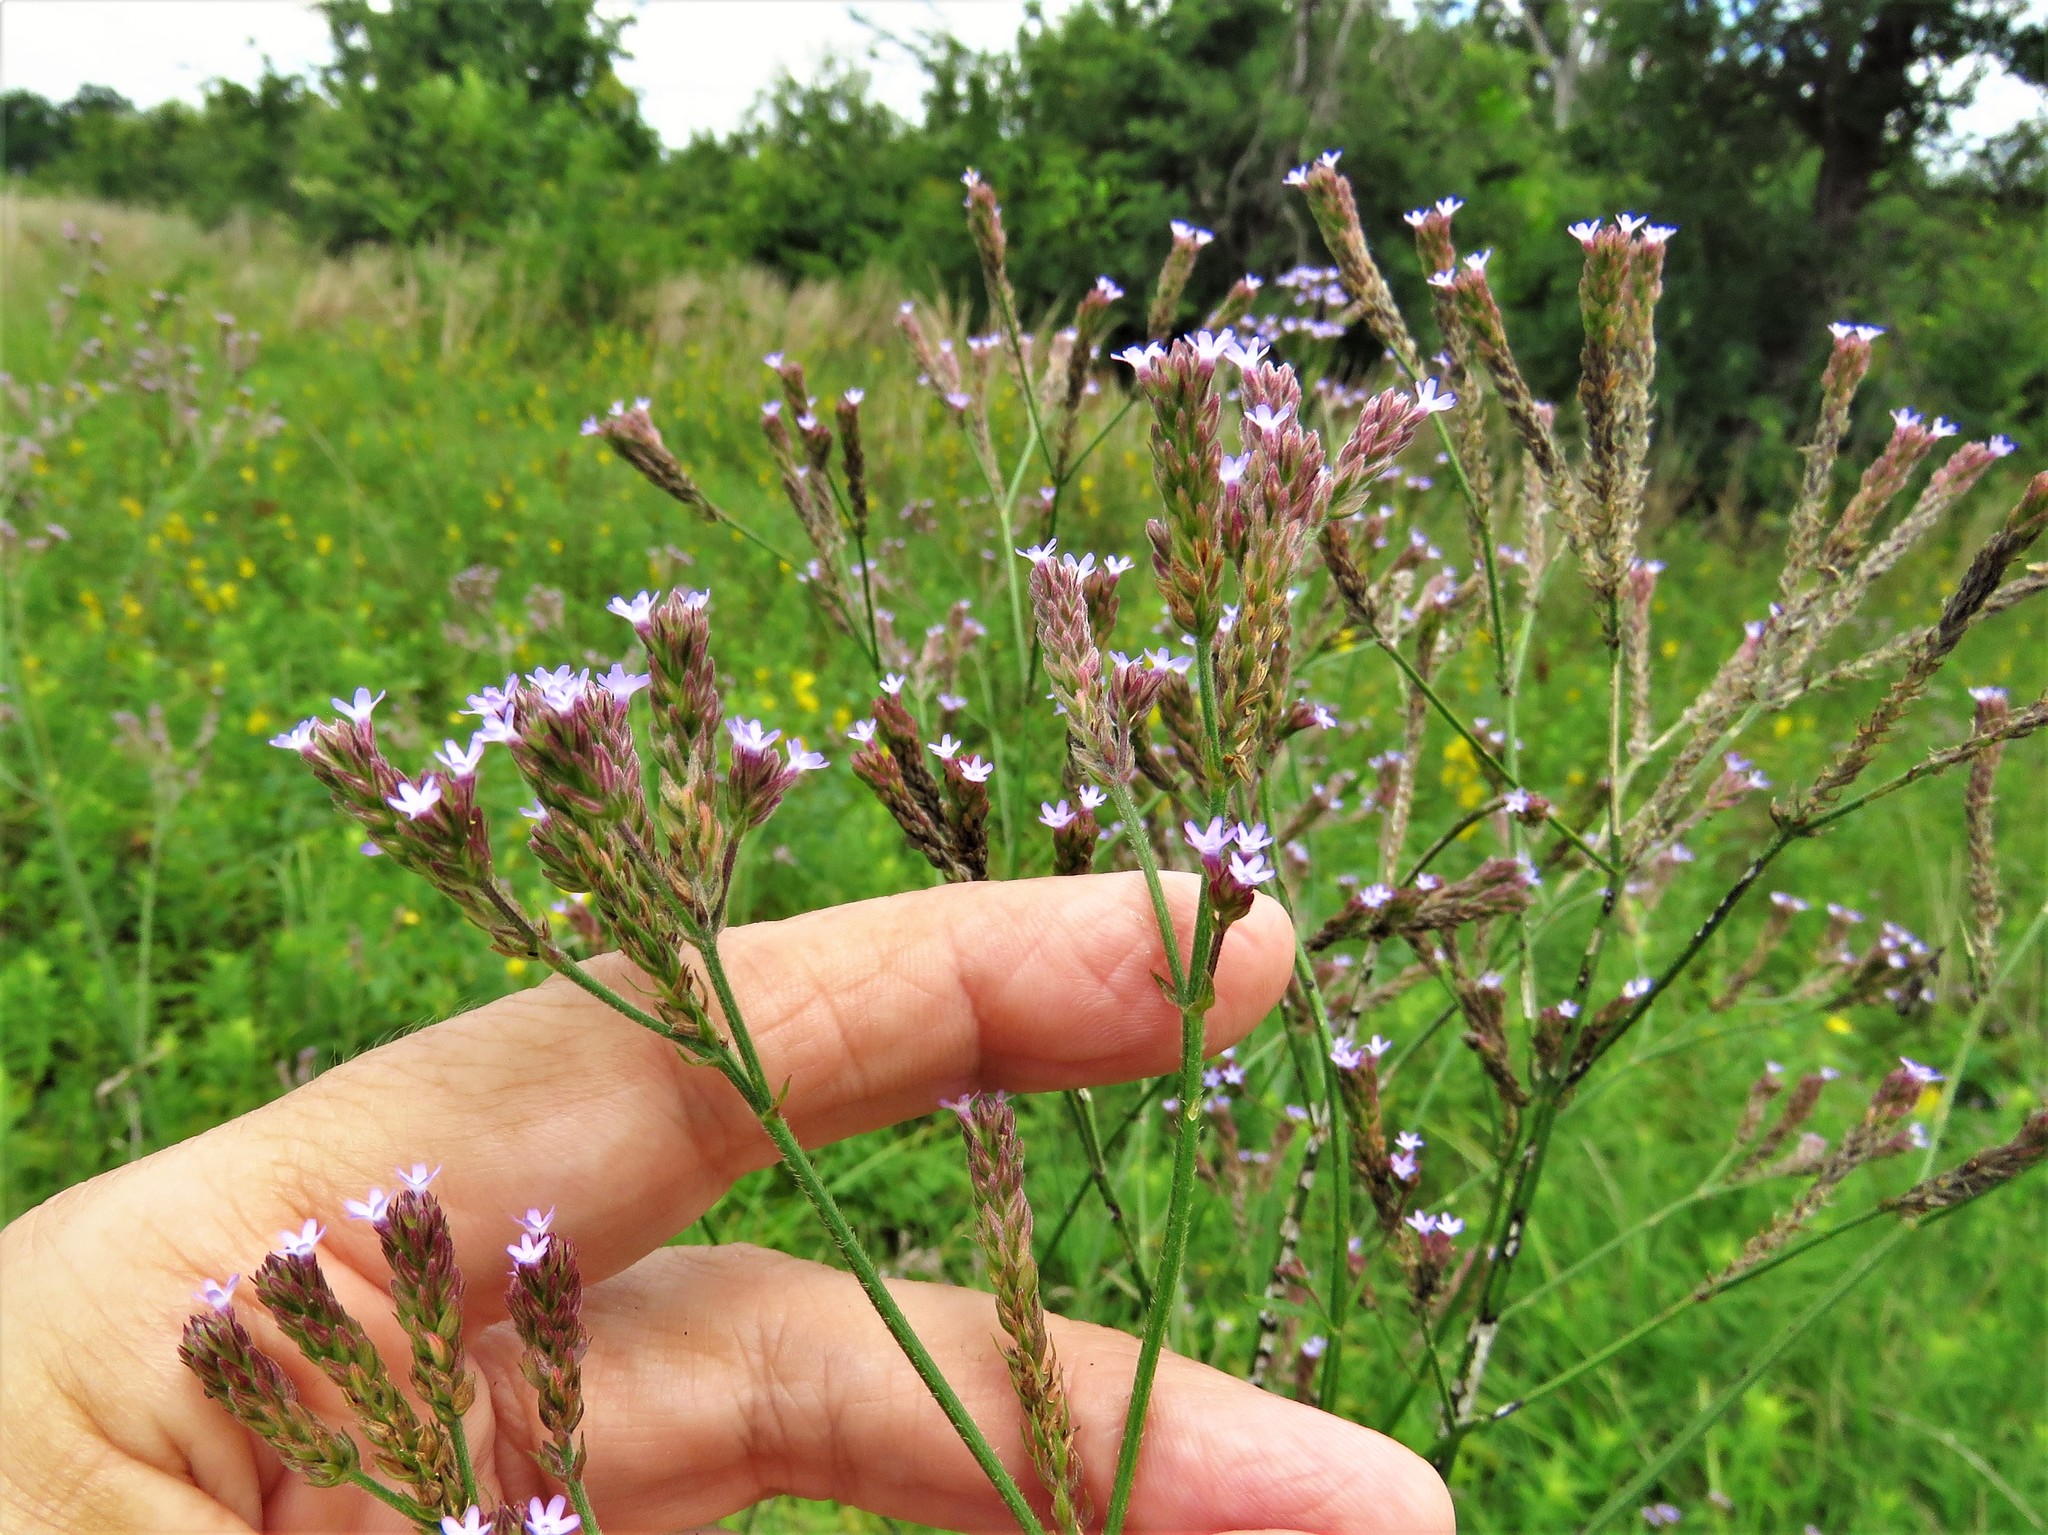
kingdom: Plantae
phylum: Tracheophyta
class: Magnoliopsida
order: Lamiales
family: Verbenaceae
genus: Verbena
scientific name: Verbena brasiliensis
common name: Brazilian vervain
